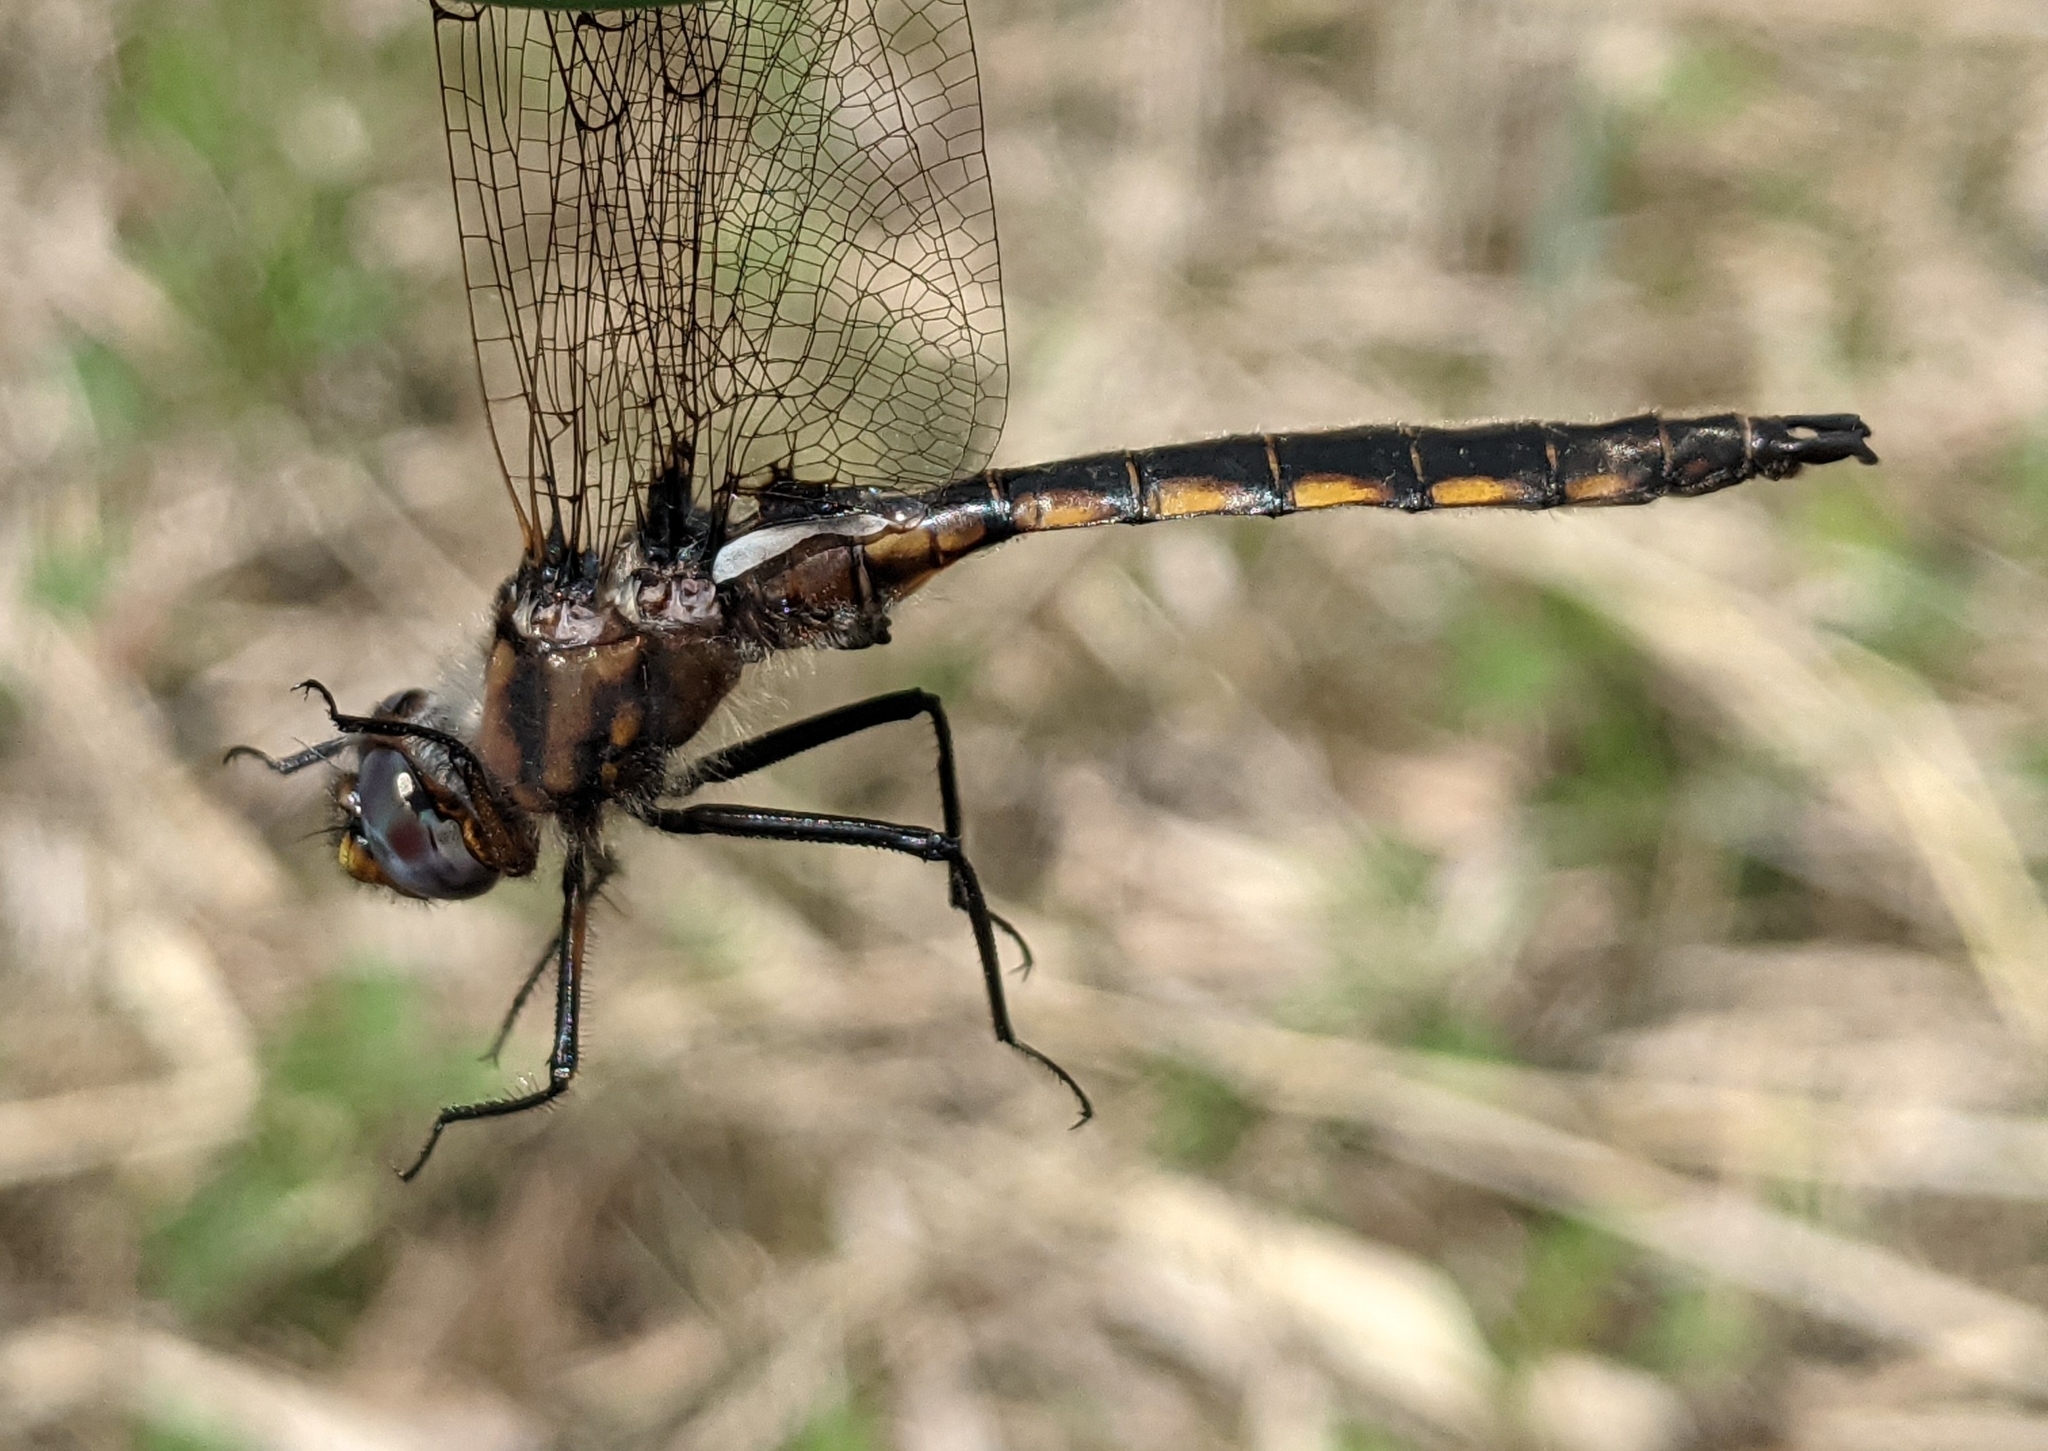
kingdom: Animalia
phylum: Arthropoda
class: Insecta
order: Odonata
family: Corduliidae
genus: Epitheca
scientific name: Epitheca canis
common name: Beaverpond baskettail
